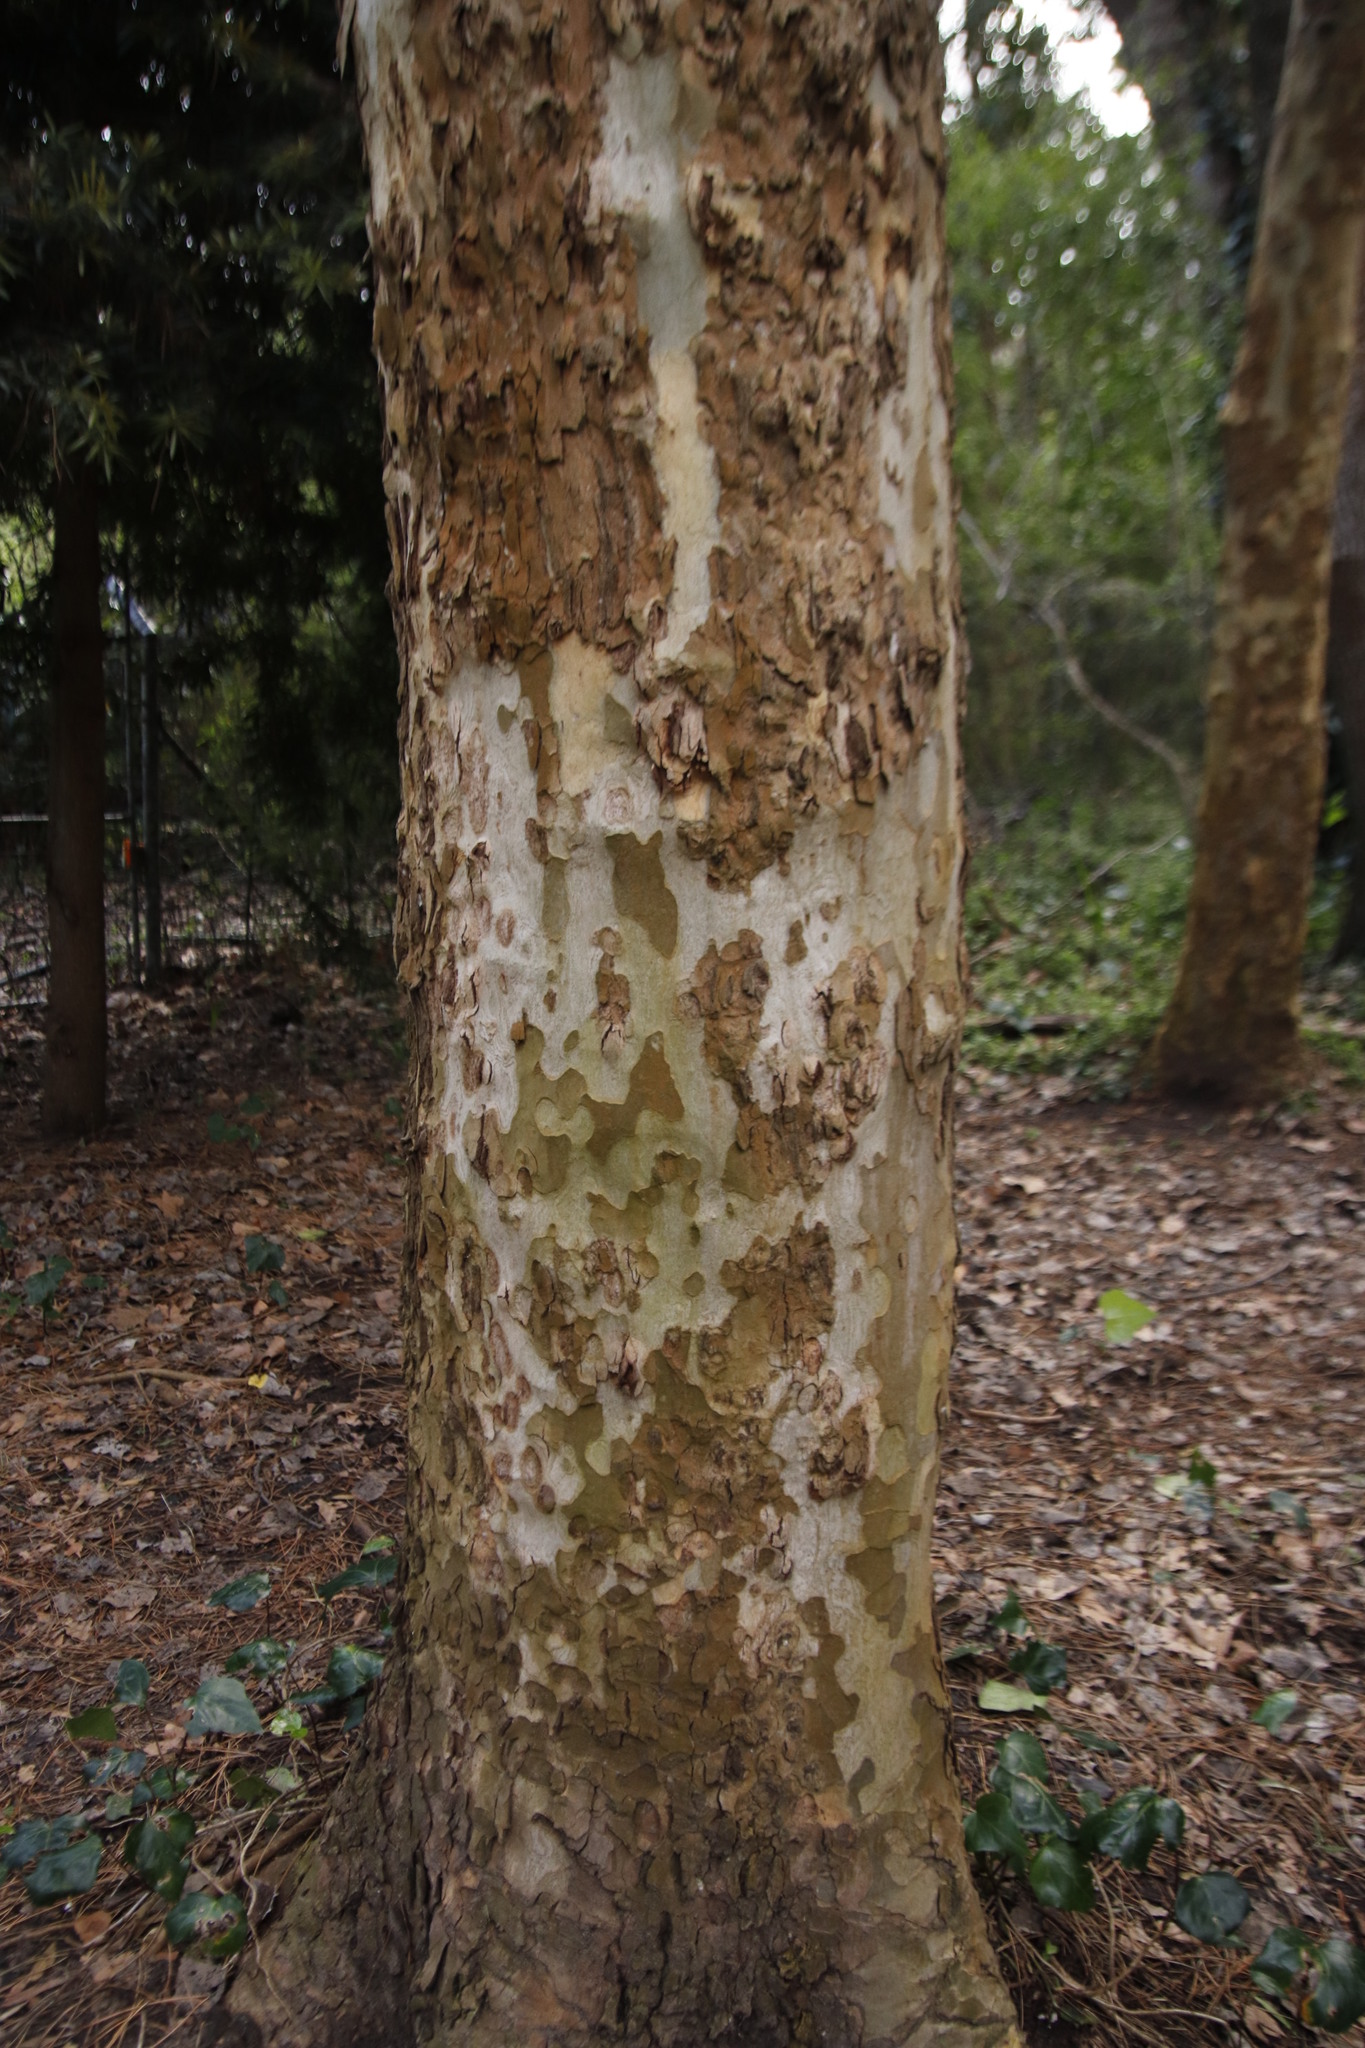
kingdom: Plantae
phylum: Tracheophyta
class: Magnoliopsida
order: Proteales
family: Platanaceae
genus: Platanus
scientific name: Platanus hispanica
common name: London plane
